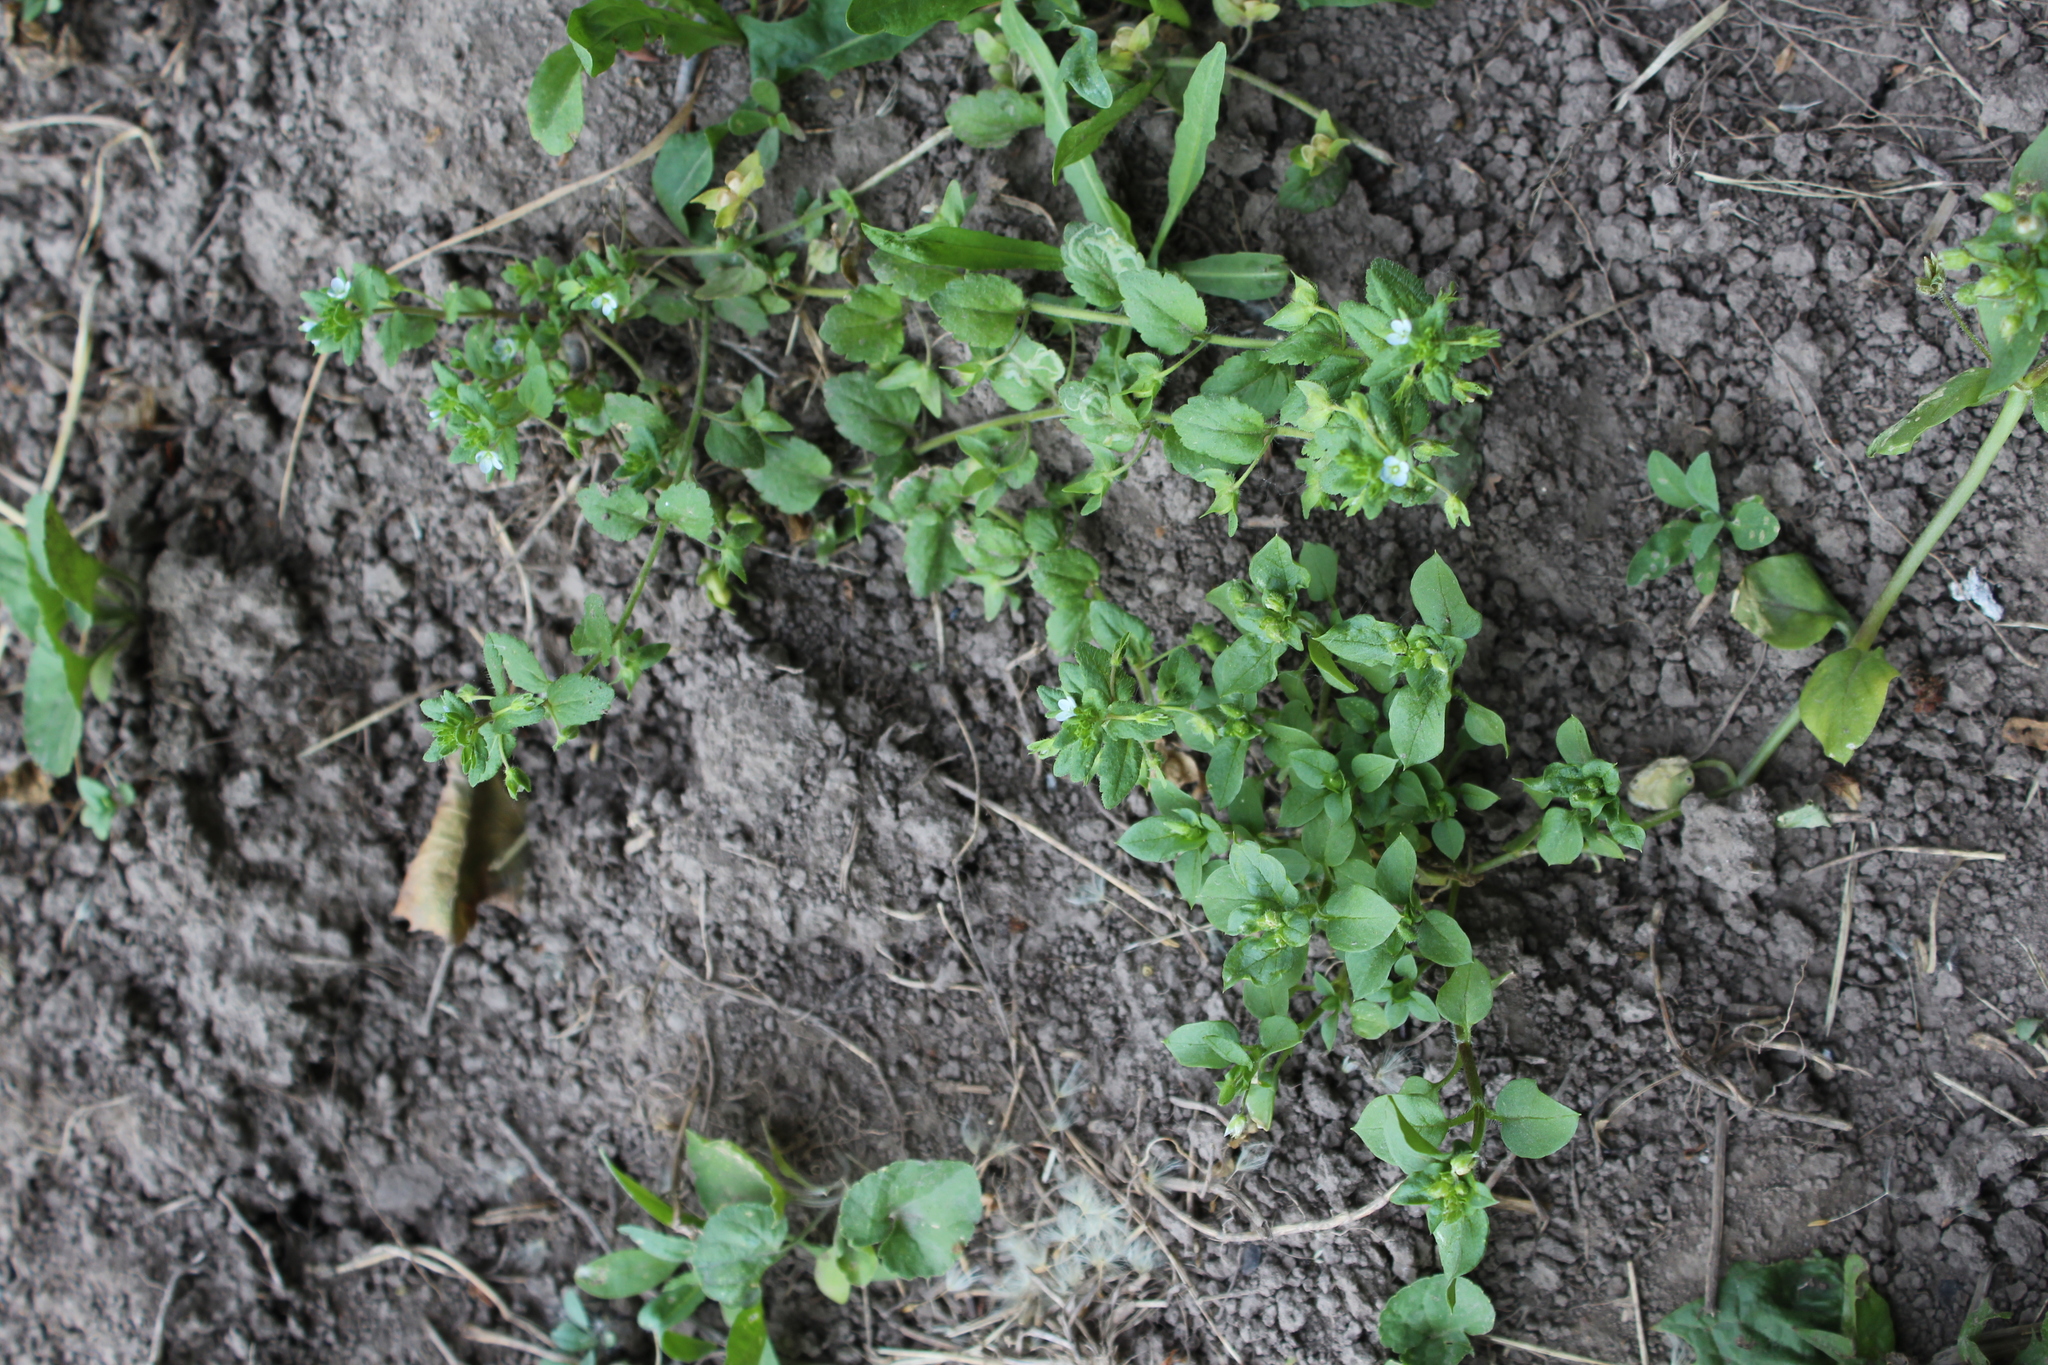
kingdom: Plantae
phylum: Tracheophyta
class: Magnoliopsida
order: Lamiales
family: Plantaginaceae
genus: Veronica
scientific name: Veronica agrestis
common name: Green field-speedwell
